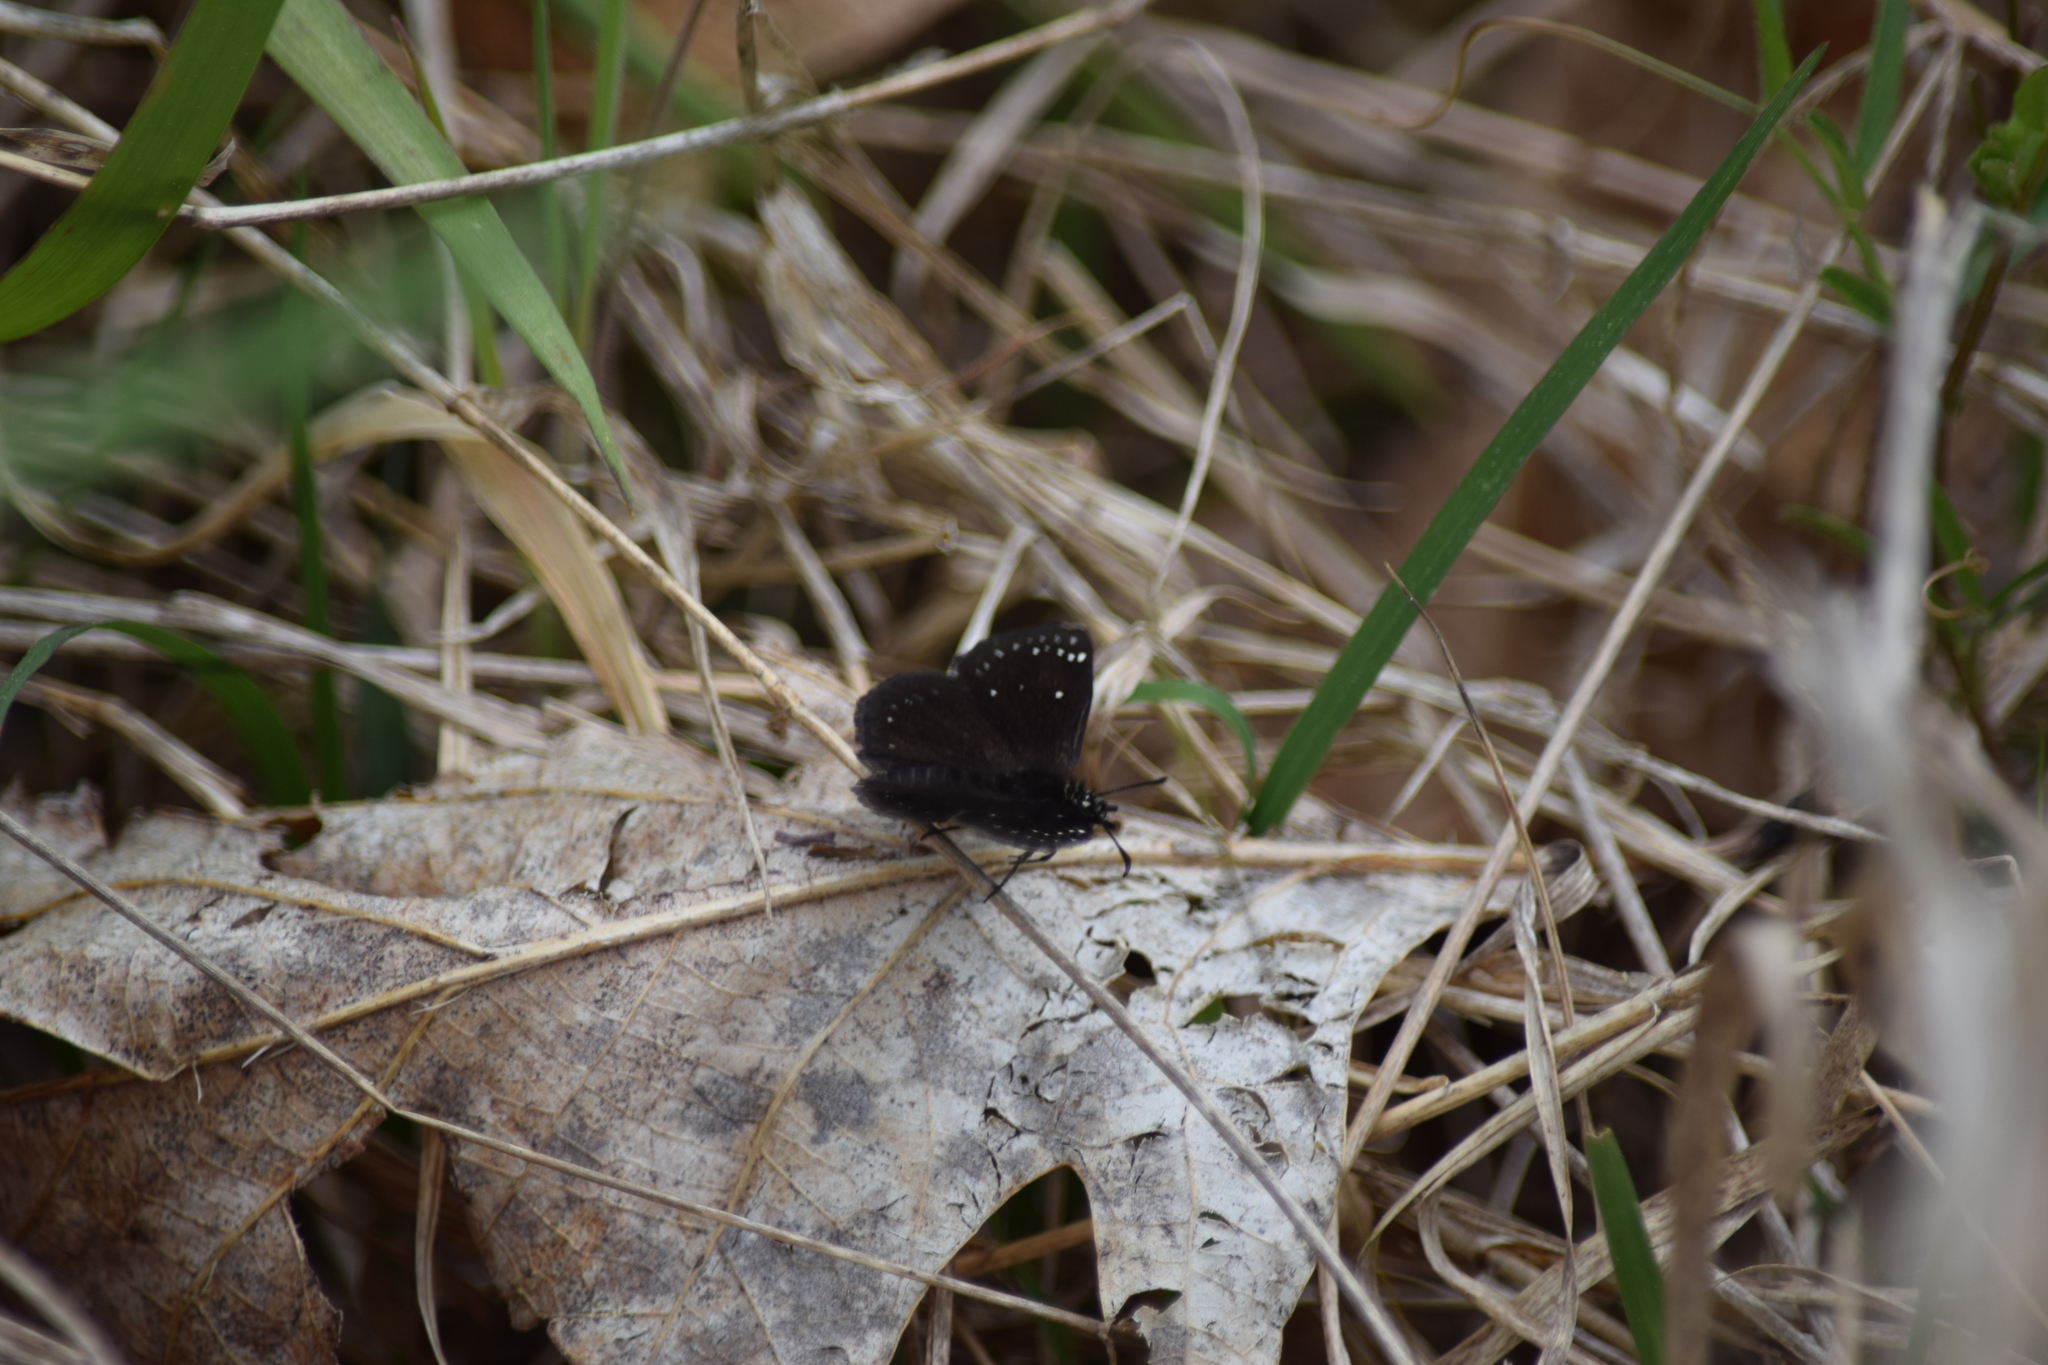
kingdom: Animalia
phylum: Arthropoda
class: Insecta
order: Lepidoptera
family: Hesperiidae
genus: Pholisora
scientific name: Pholisora catullus
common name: Common sootywing
